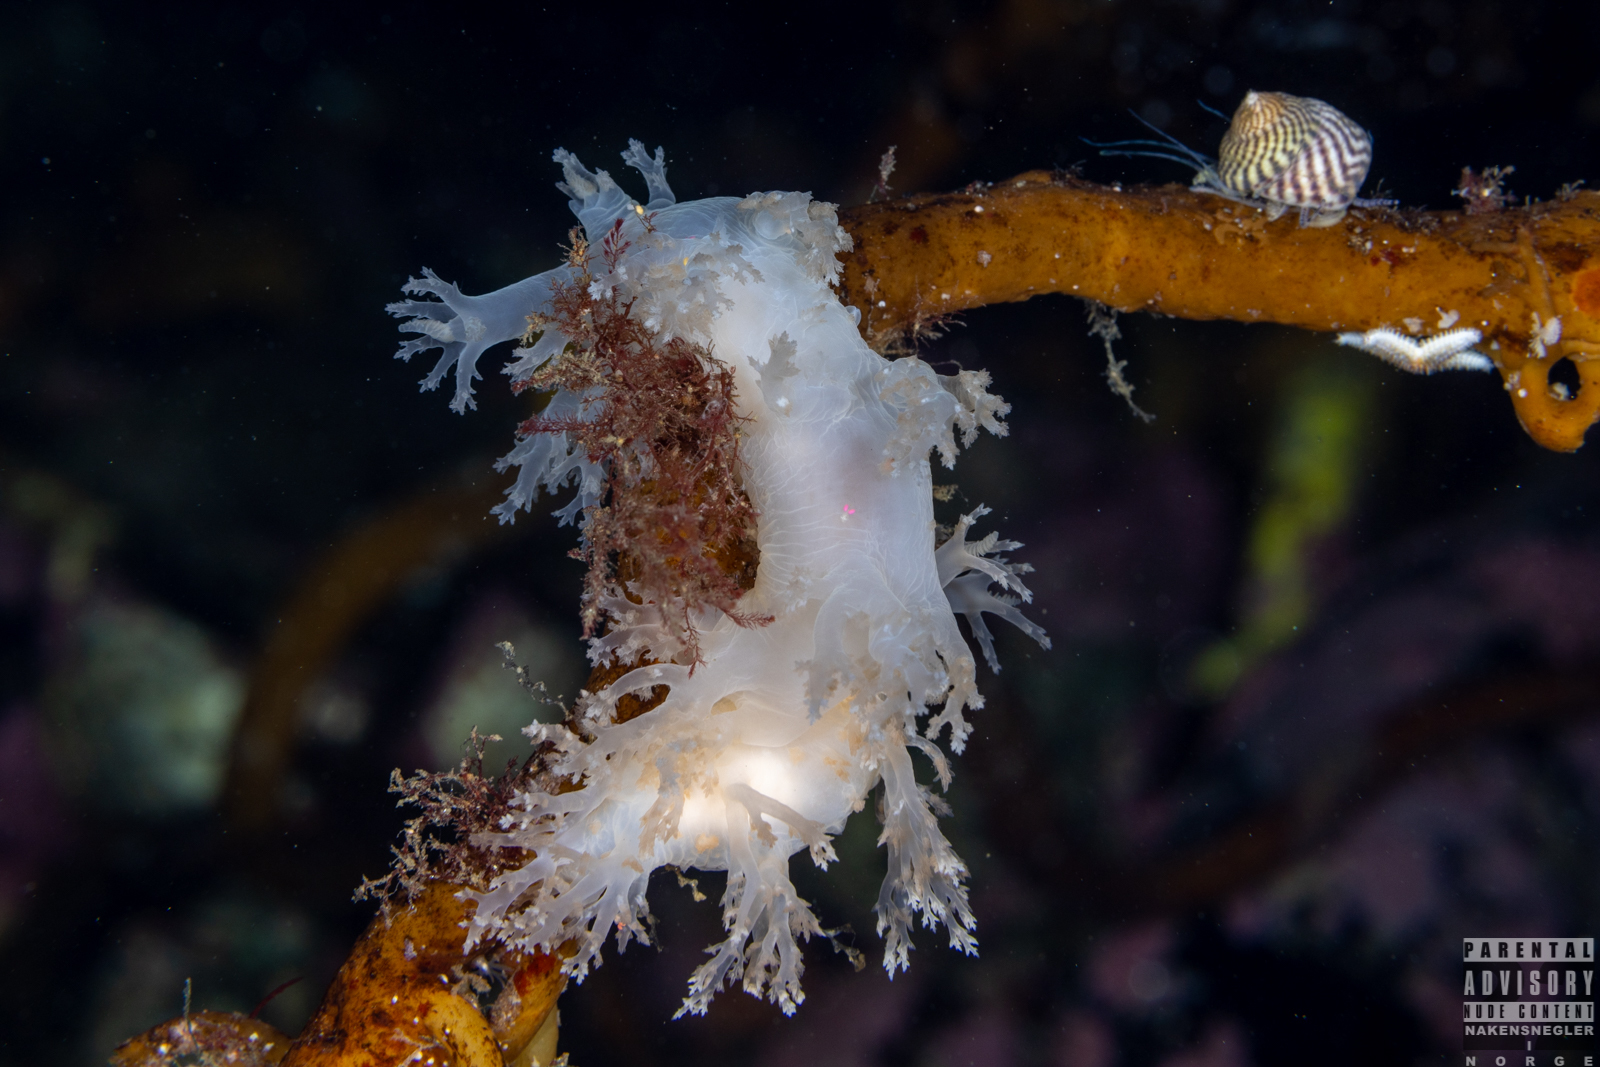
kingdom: Animalia
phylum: Mollusca
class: Gastropoda
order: Nudibranchia
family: Dendronotidae
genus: Dendronotus
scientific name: Dendronotus lacteus
